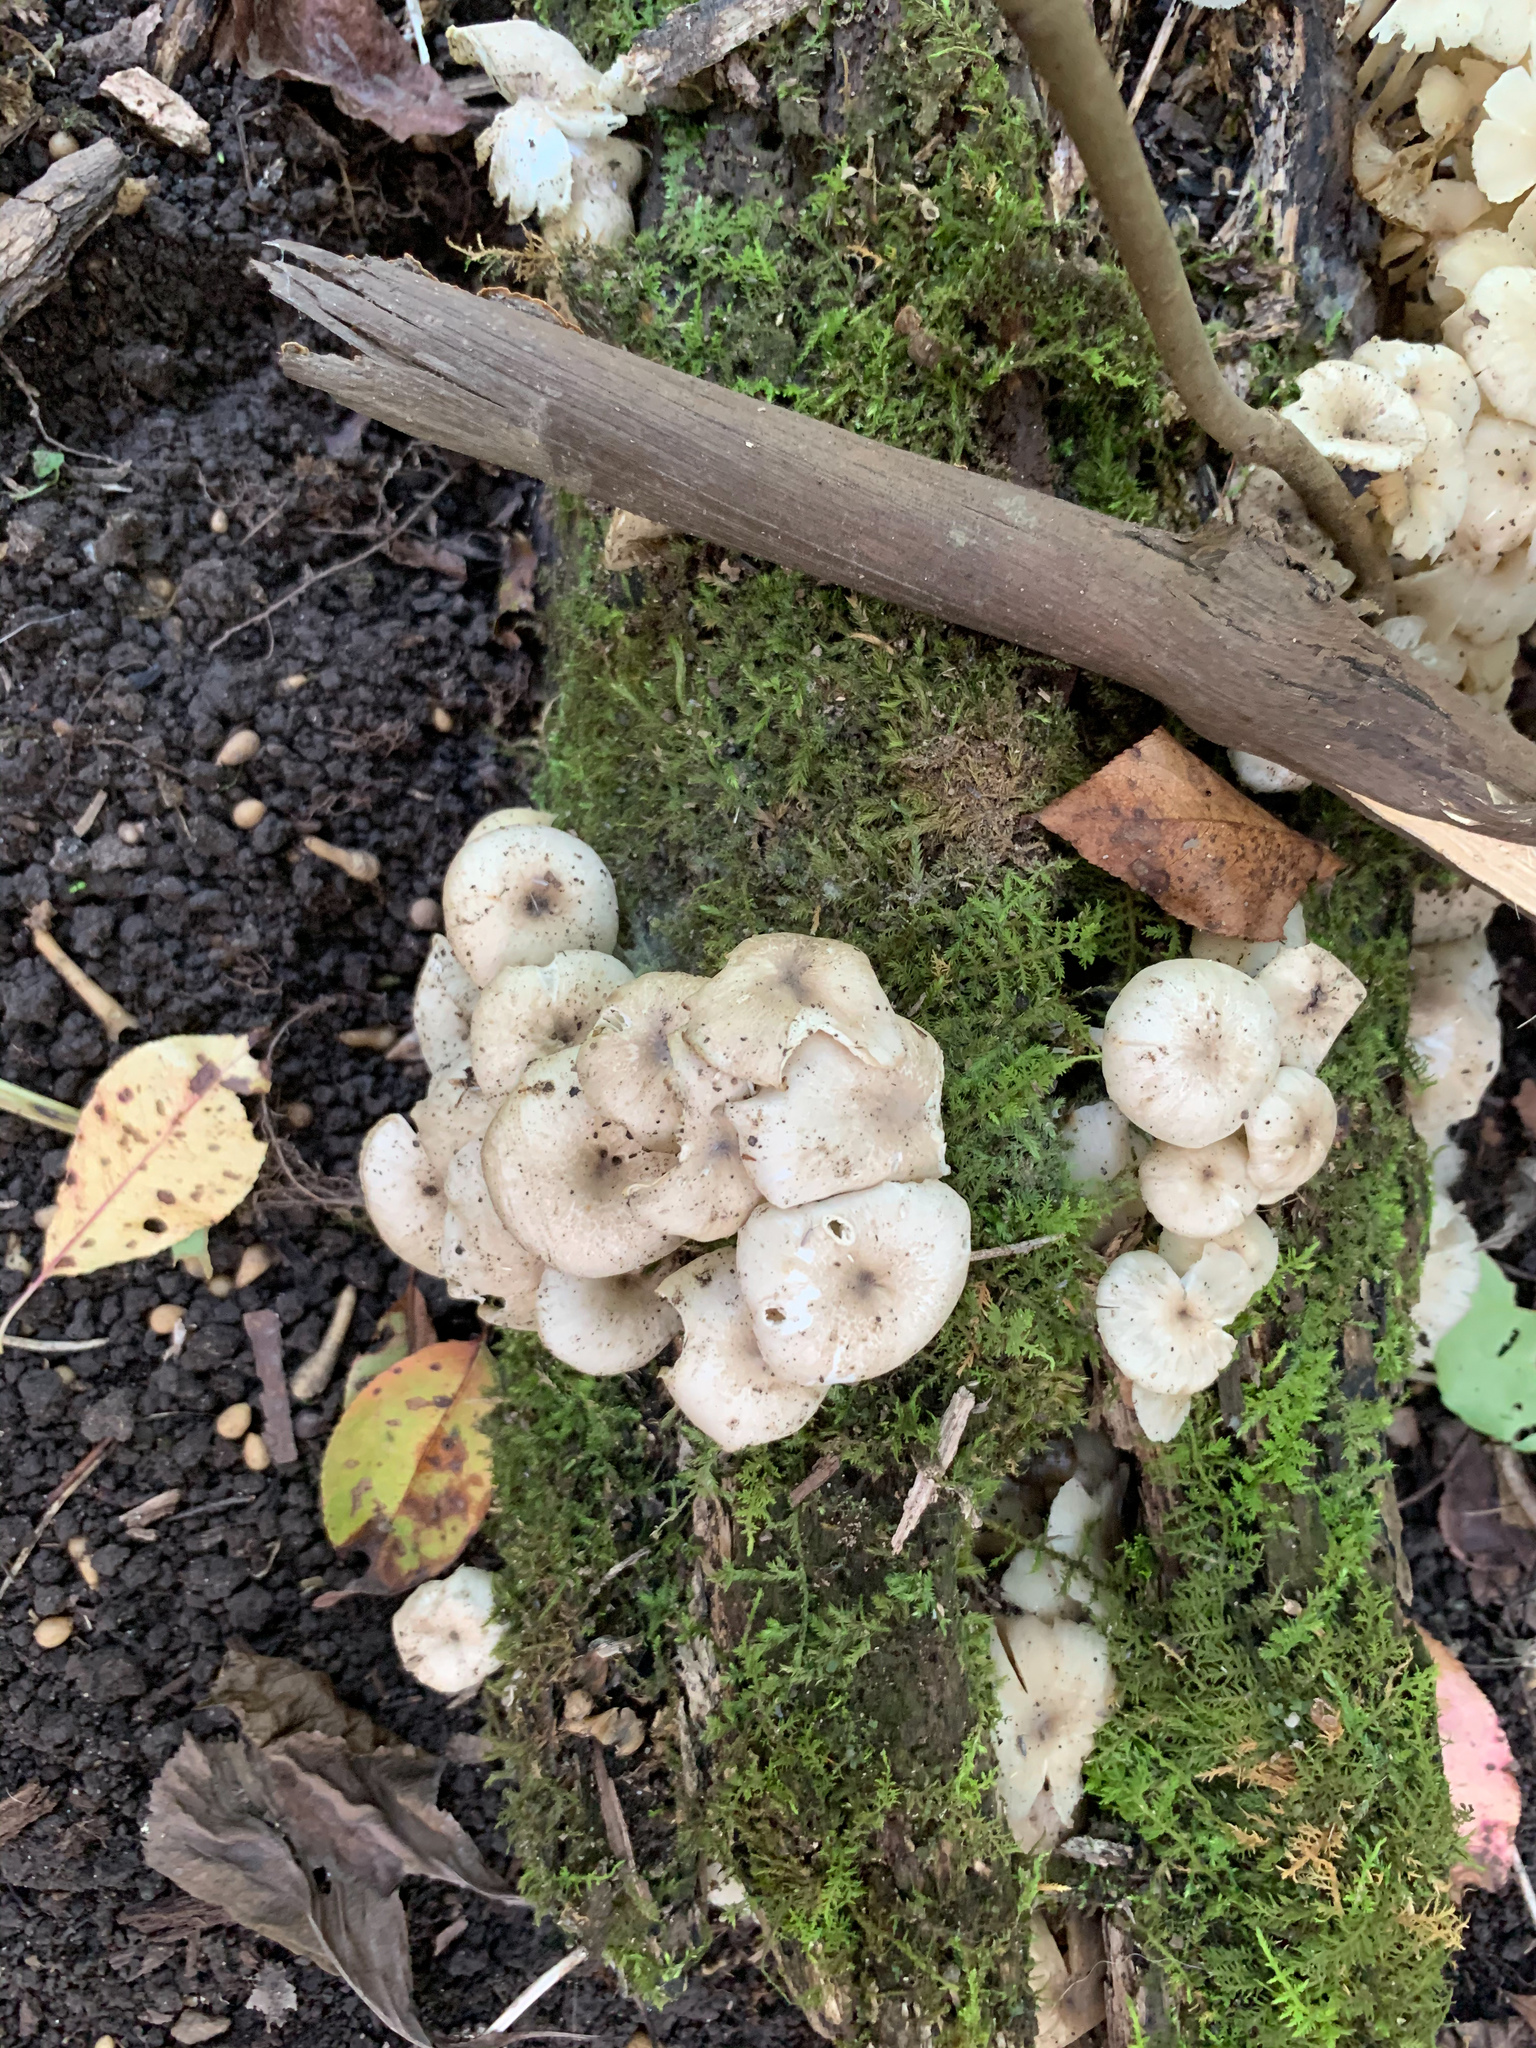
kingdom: Fungi
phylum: Basidiomycota
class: Agaricomycetes
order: Agaricales
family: Marasmiaceae
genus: Clitocybula
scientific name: Clitocybula oculus
